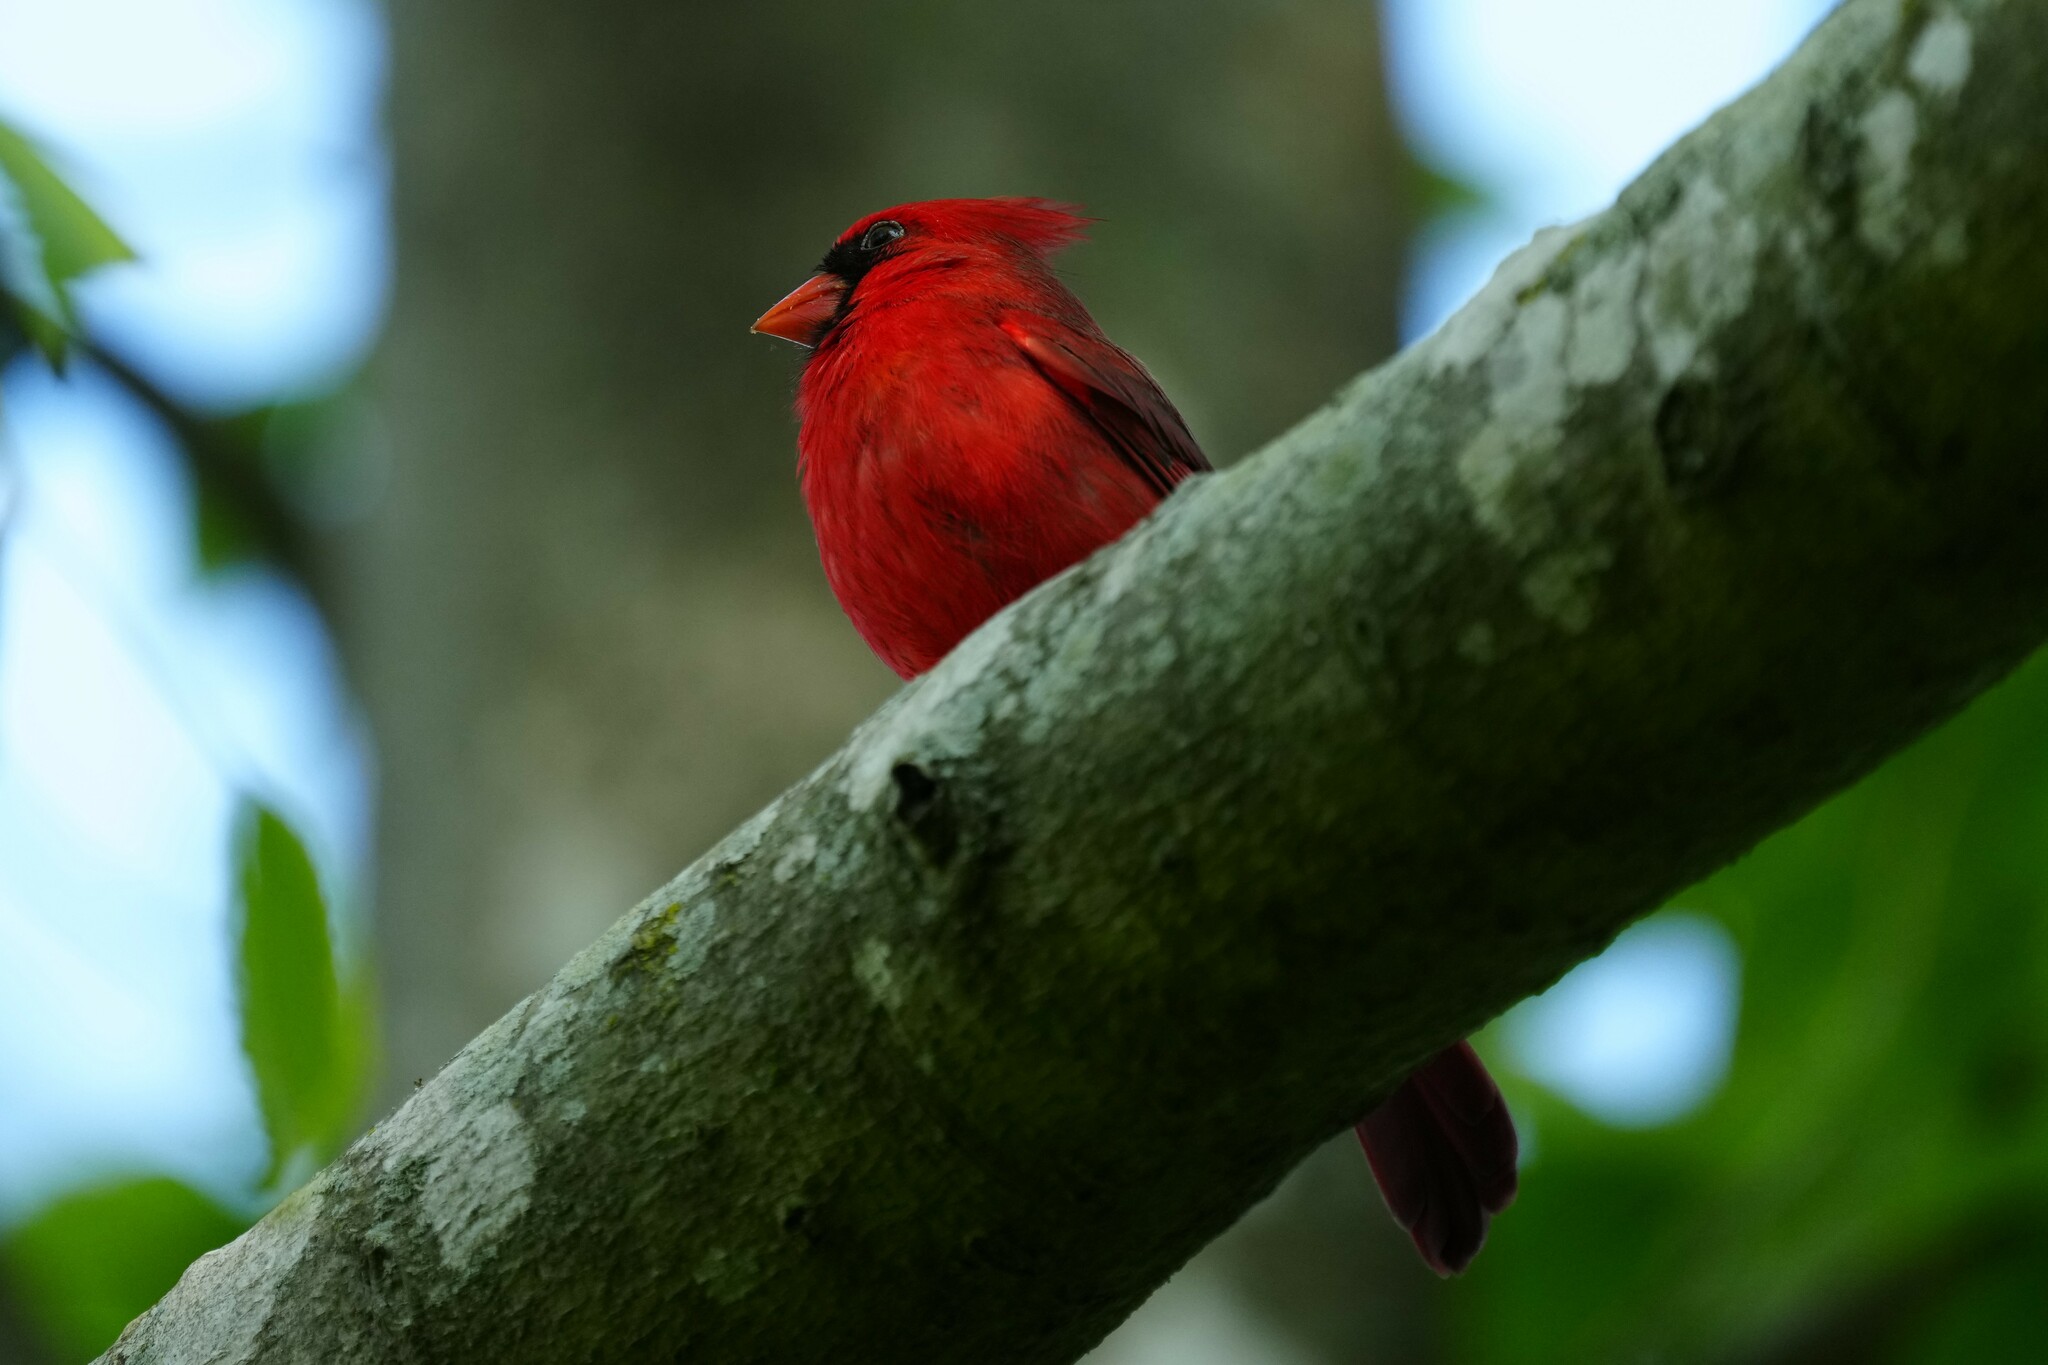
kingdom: Animalia
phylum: Chordata
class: Aves
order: Passeriformes
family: Cardinalidae
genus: Cardinalis
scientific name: Cardinalis cardinalis
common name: Northern cardinal
